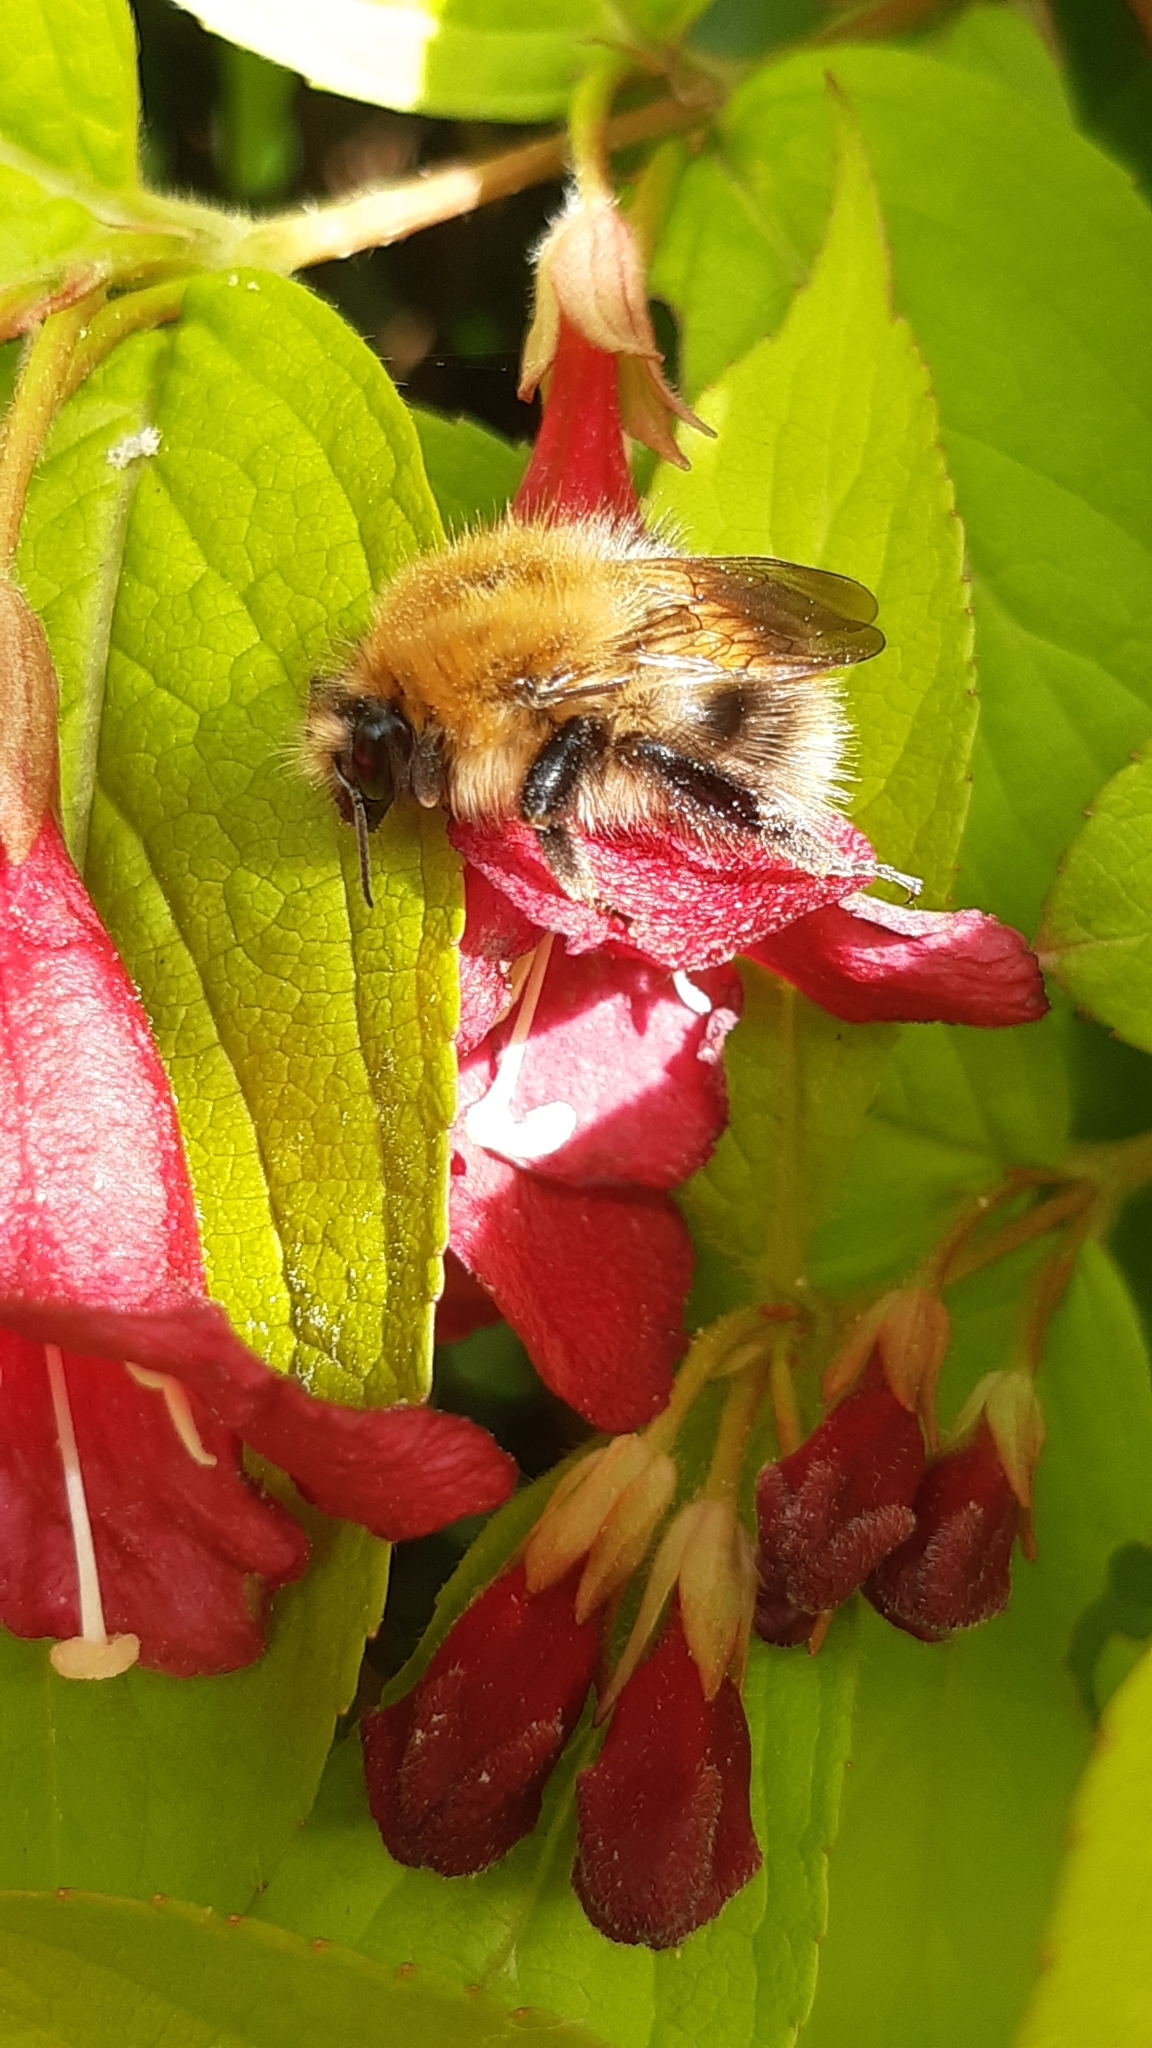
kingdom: Animalia
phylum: Arthropoda
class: Insecta
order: Hymenoptera
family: Apidae
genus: Bombus
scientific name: Bombus pascuorum
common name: Common carder bee
